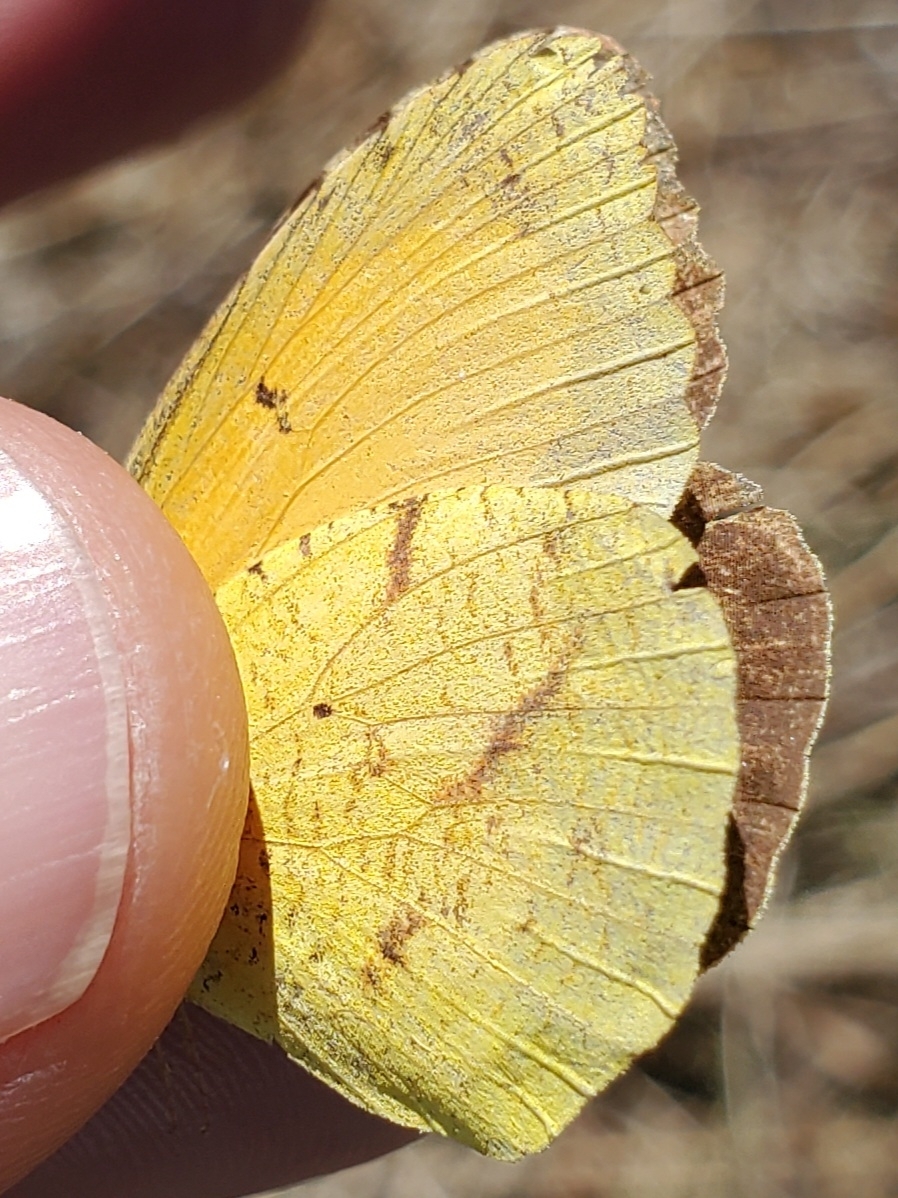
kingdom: Animalia
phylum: Arthropoda
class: Insecta
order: Lepidoptera
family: Pieridae
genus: Abaeis
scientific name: Abaeis nicippe
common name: Sleepy orange
